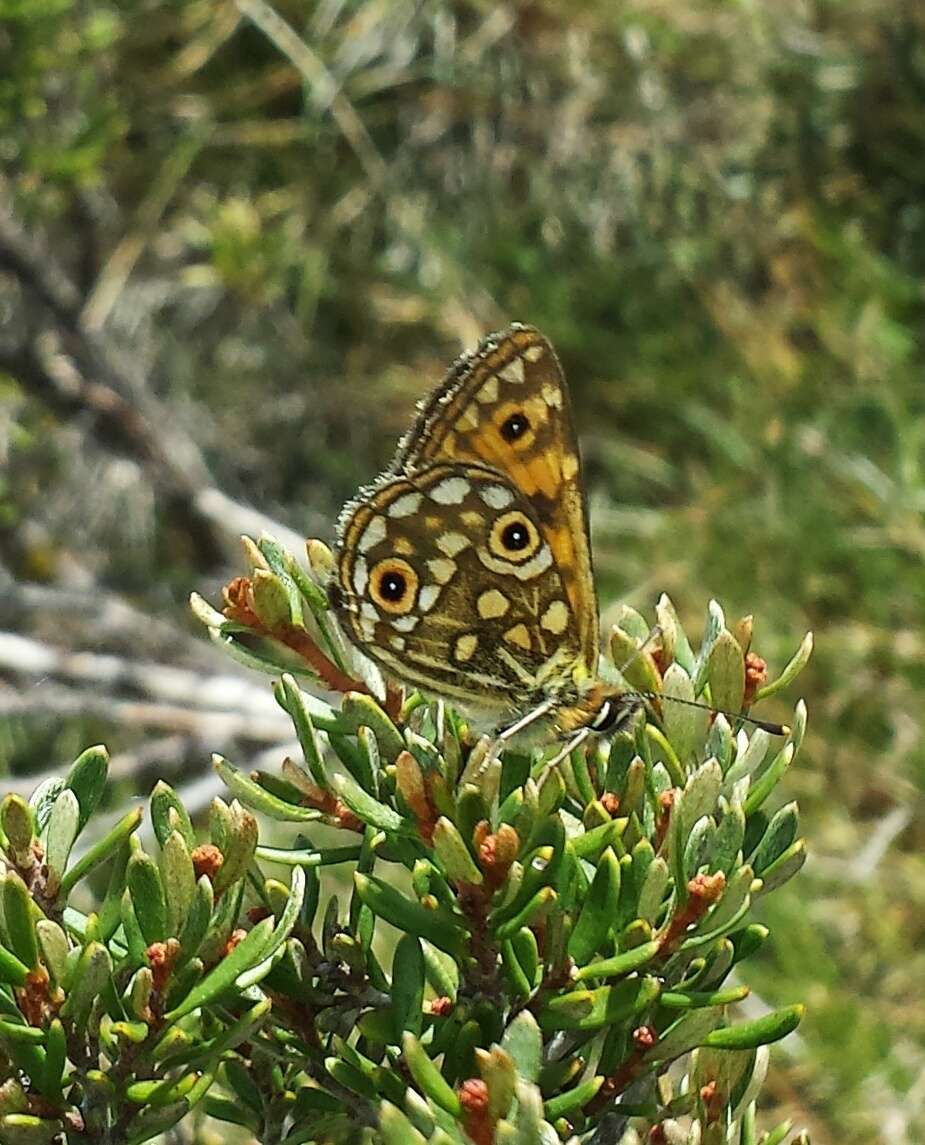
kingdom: Animalia
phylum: Arthropoda
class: Insecta
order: Lepidoptera
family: Nymphalidae
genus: Oreixenica
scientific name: Oreixenica orichora
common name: Orichora brown
